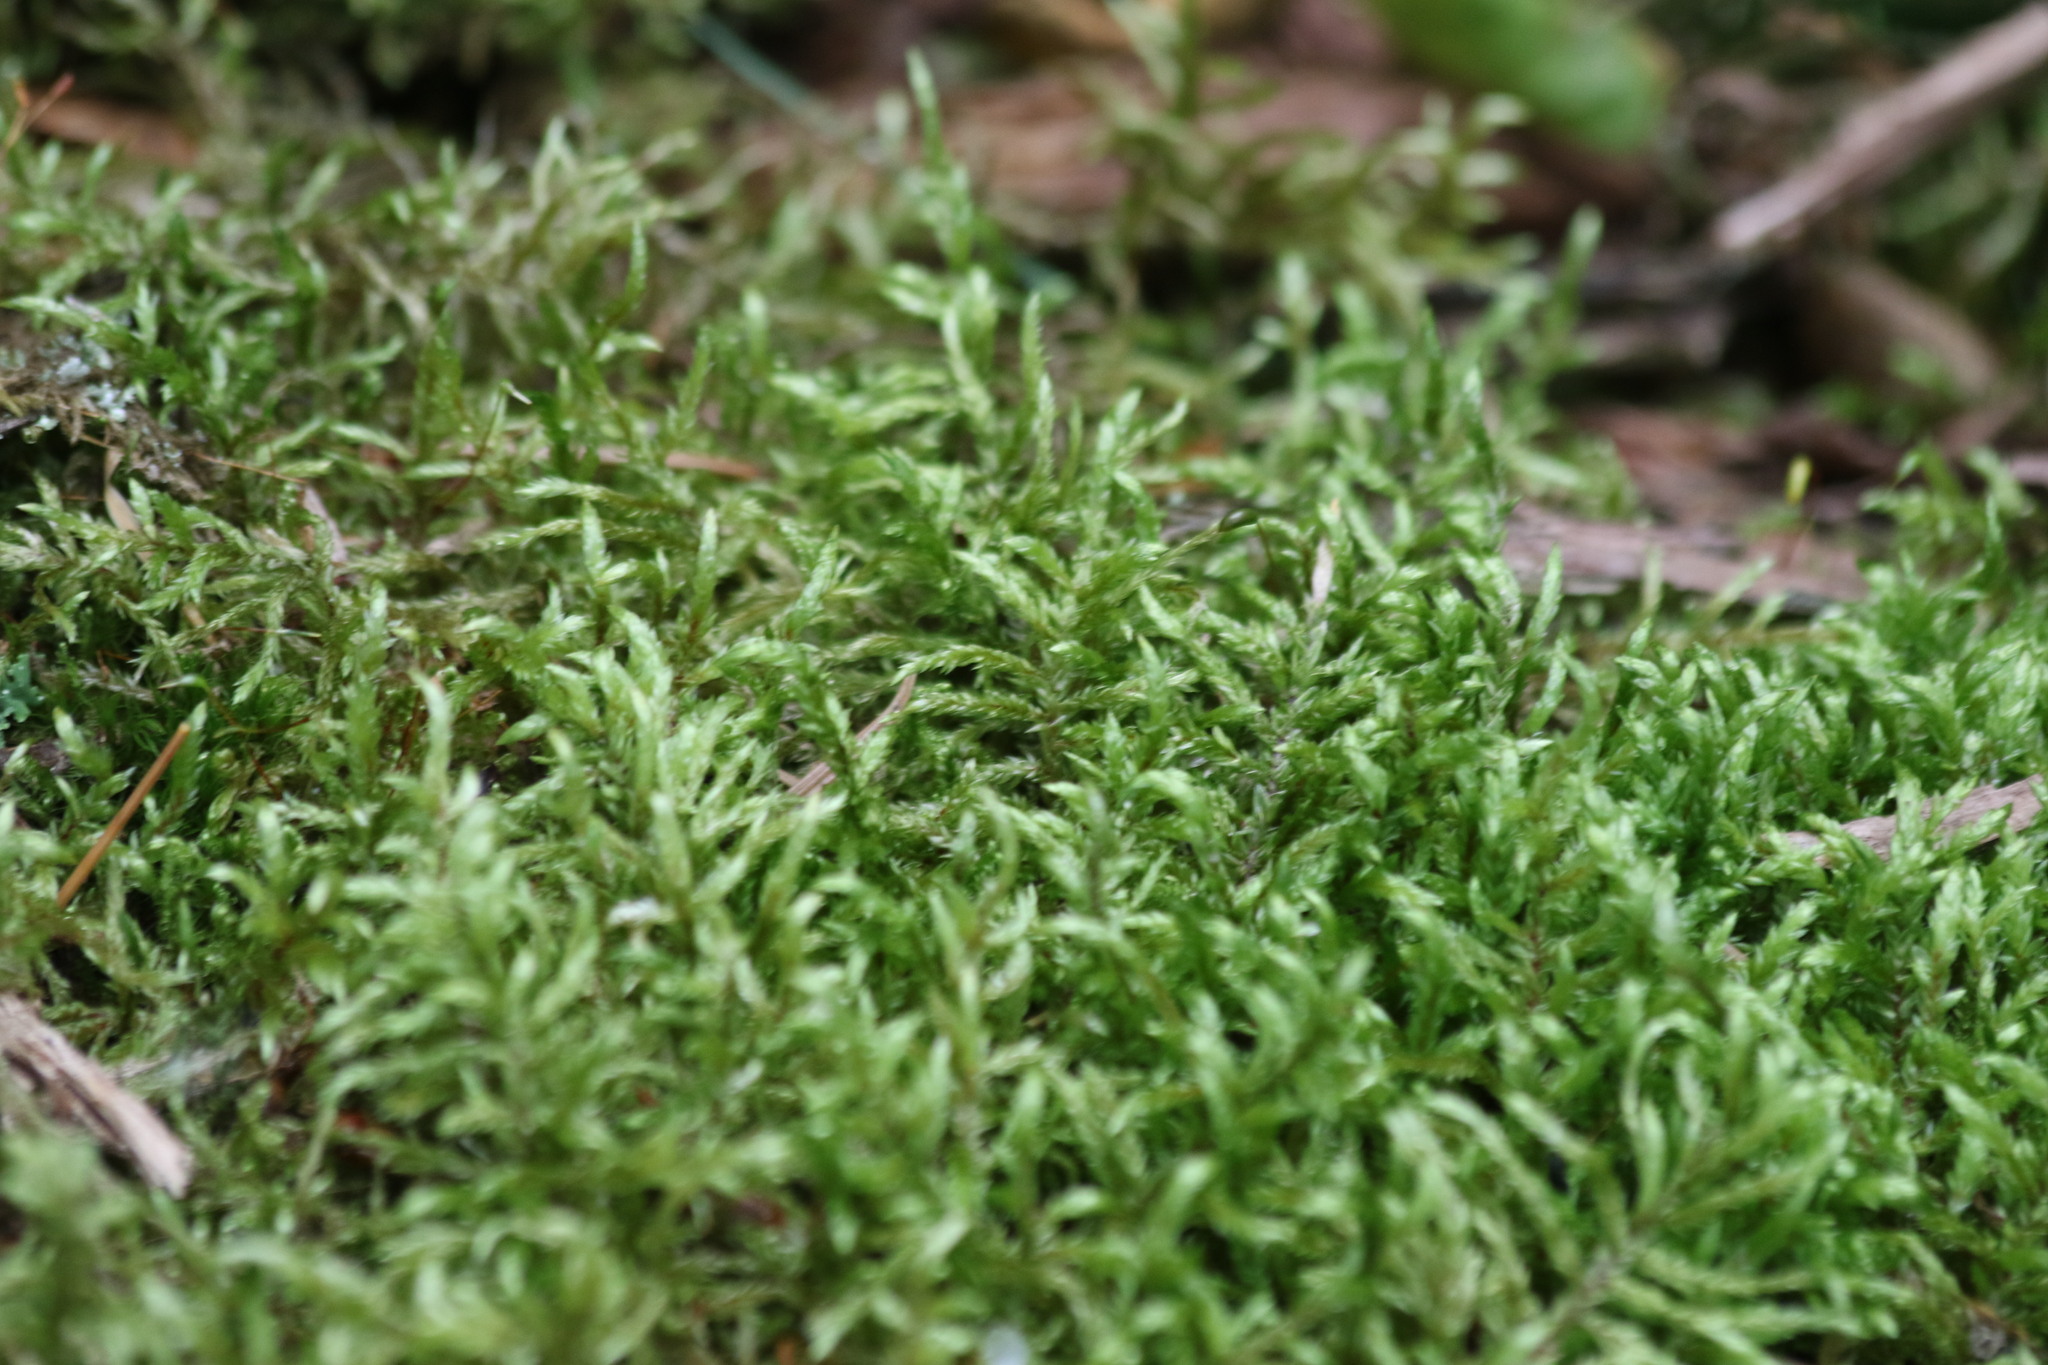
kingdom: Plantae
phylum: Bryophyta
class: Bryopsida
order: Hypnales
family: Hylocomiaceae
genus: Pleurozium
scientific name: Pleurozium schreberi
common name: Red-stemmed feather moss
